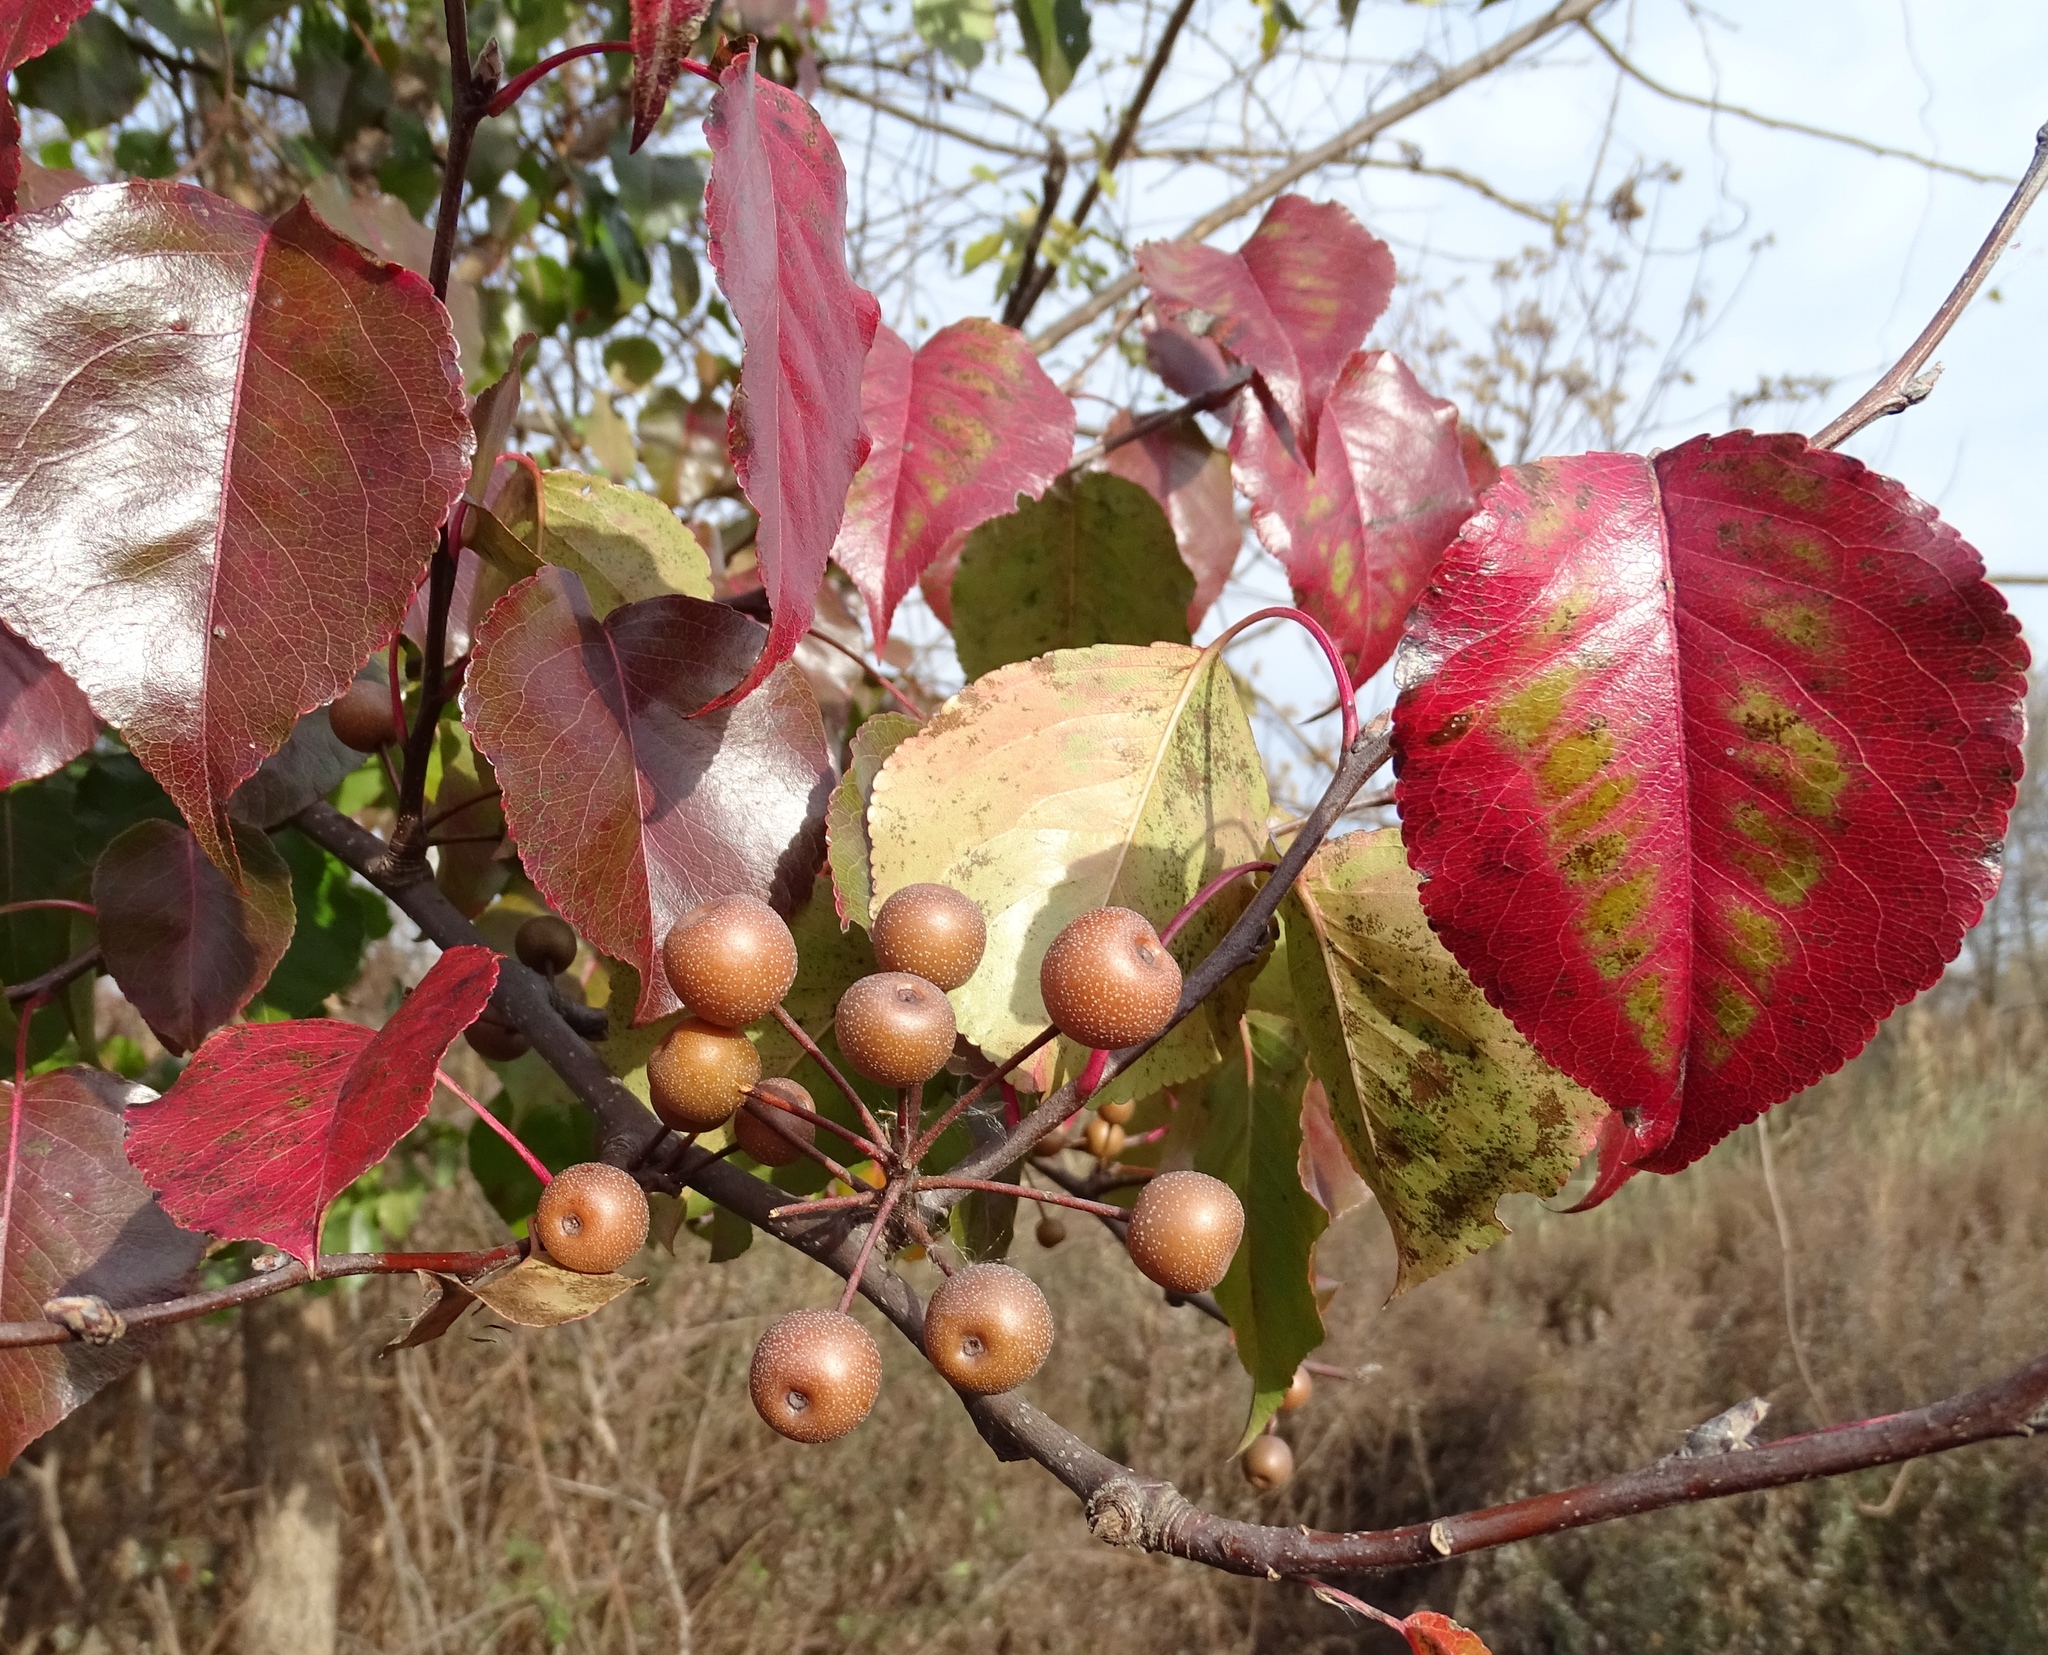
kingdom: Plantae
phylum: Tracheophyta
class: Magnoliopsida
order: Rosales
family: Rosaceae
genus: Pyrus
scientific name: Pyrus calleryana
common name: Callery pear
